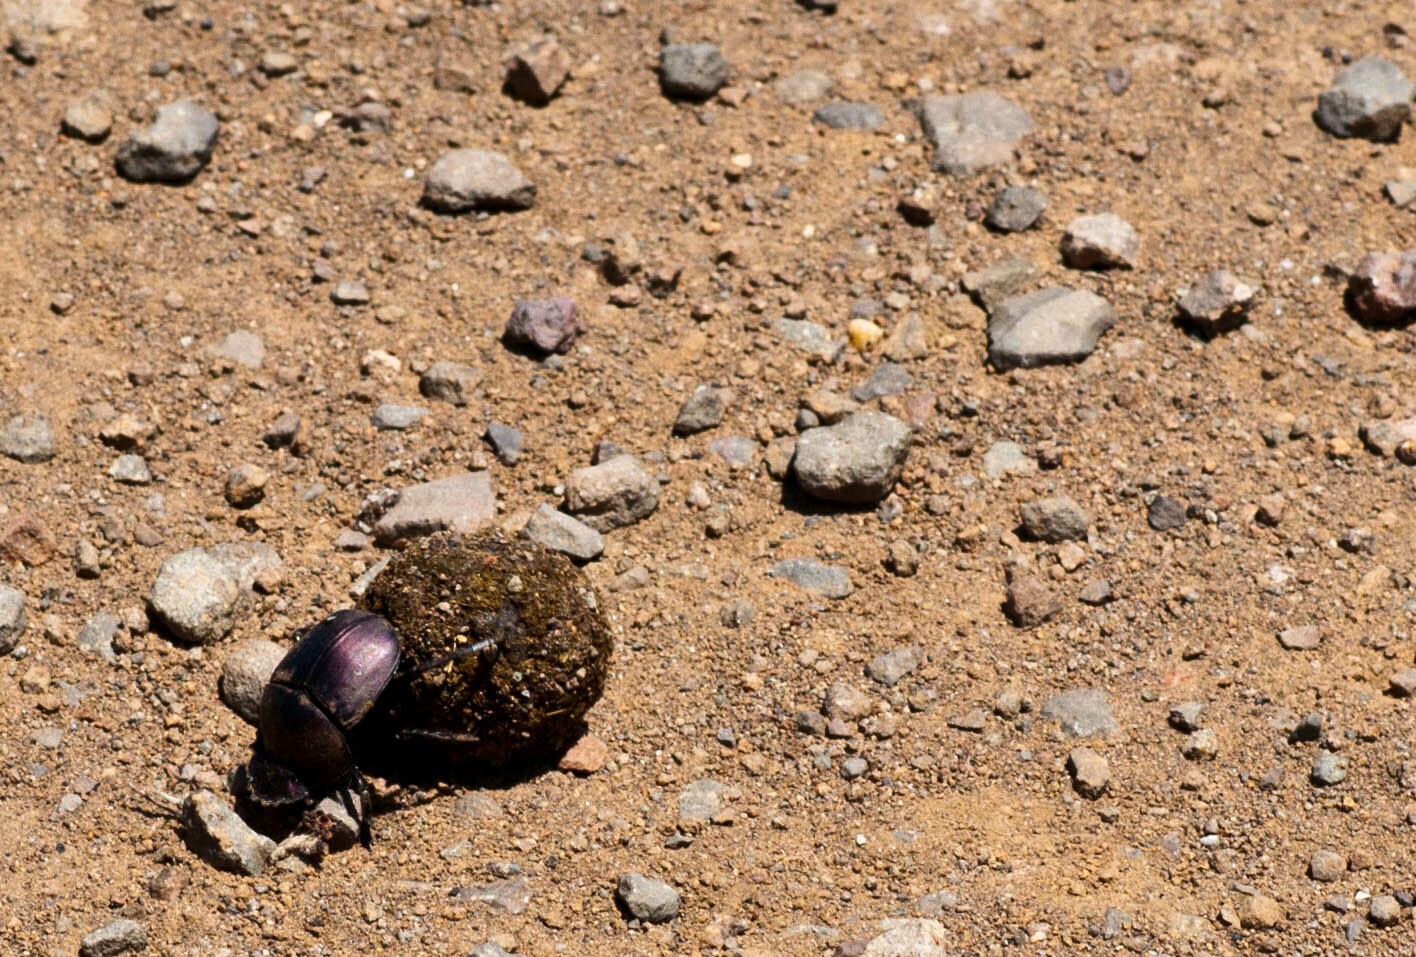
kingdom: Animalia
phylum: Arthropoda
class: Insecta
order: Coleoptera
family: Scarabaeidae
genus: Kheper
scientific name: Kheper nigroaeneus
